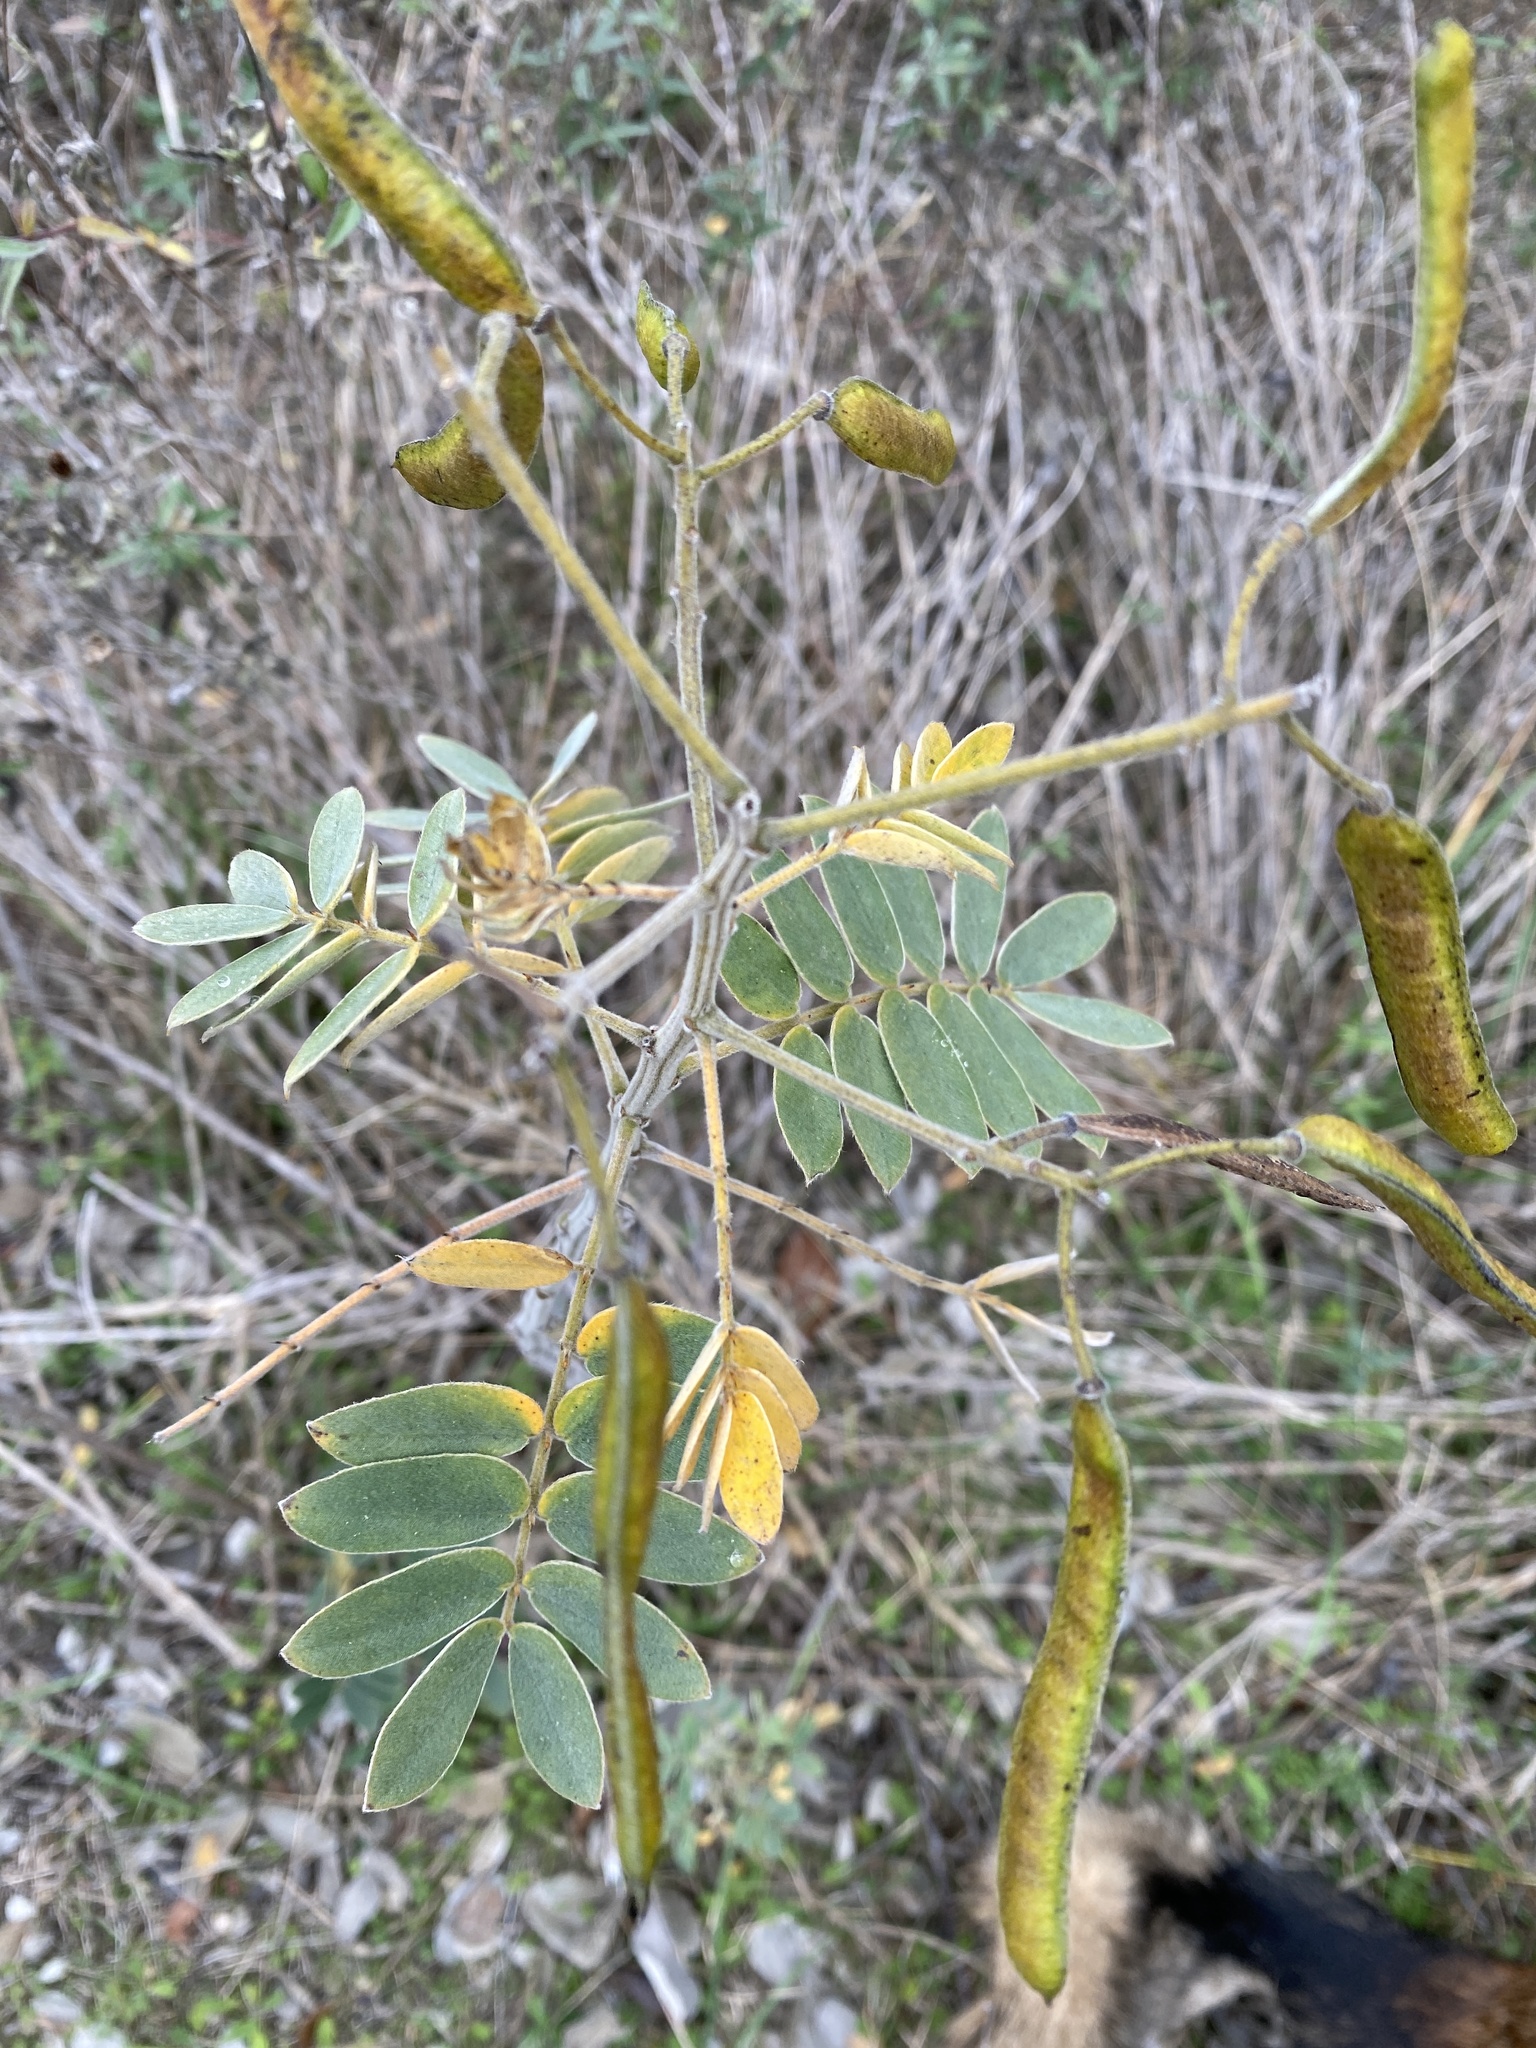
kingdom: Plantae
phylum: Tracheophyta
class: Magnoliopsida
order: Fabales
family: Fabaceae
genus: Senna
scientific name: Senna lindheimeriana
